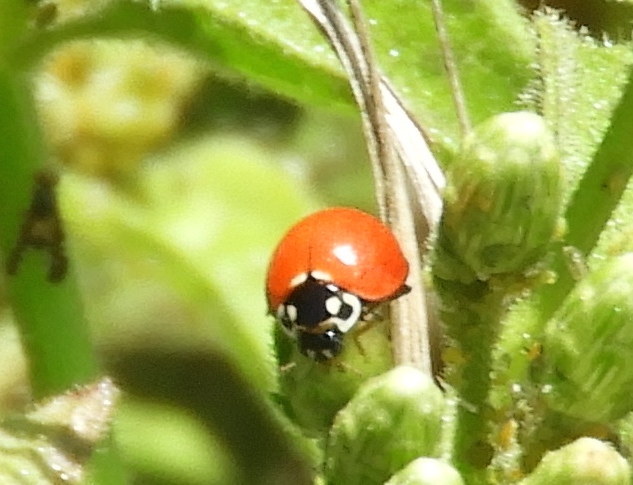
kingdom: Animalia
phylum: Arthropoda
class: Insecta
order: Coleoptera
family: Coccinellidae
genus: Cycloneda
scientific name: Cycloneda sanguinea
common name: Ladybird beetle
